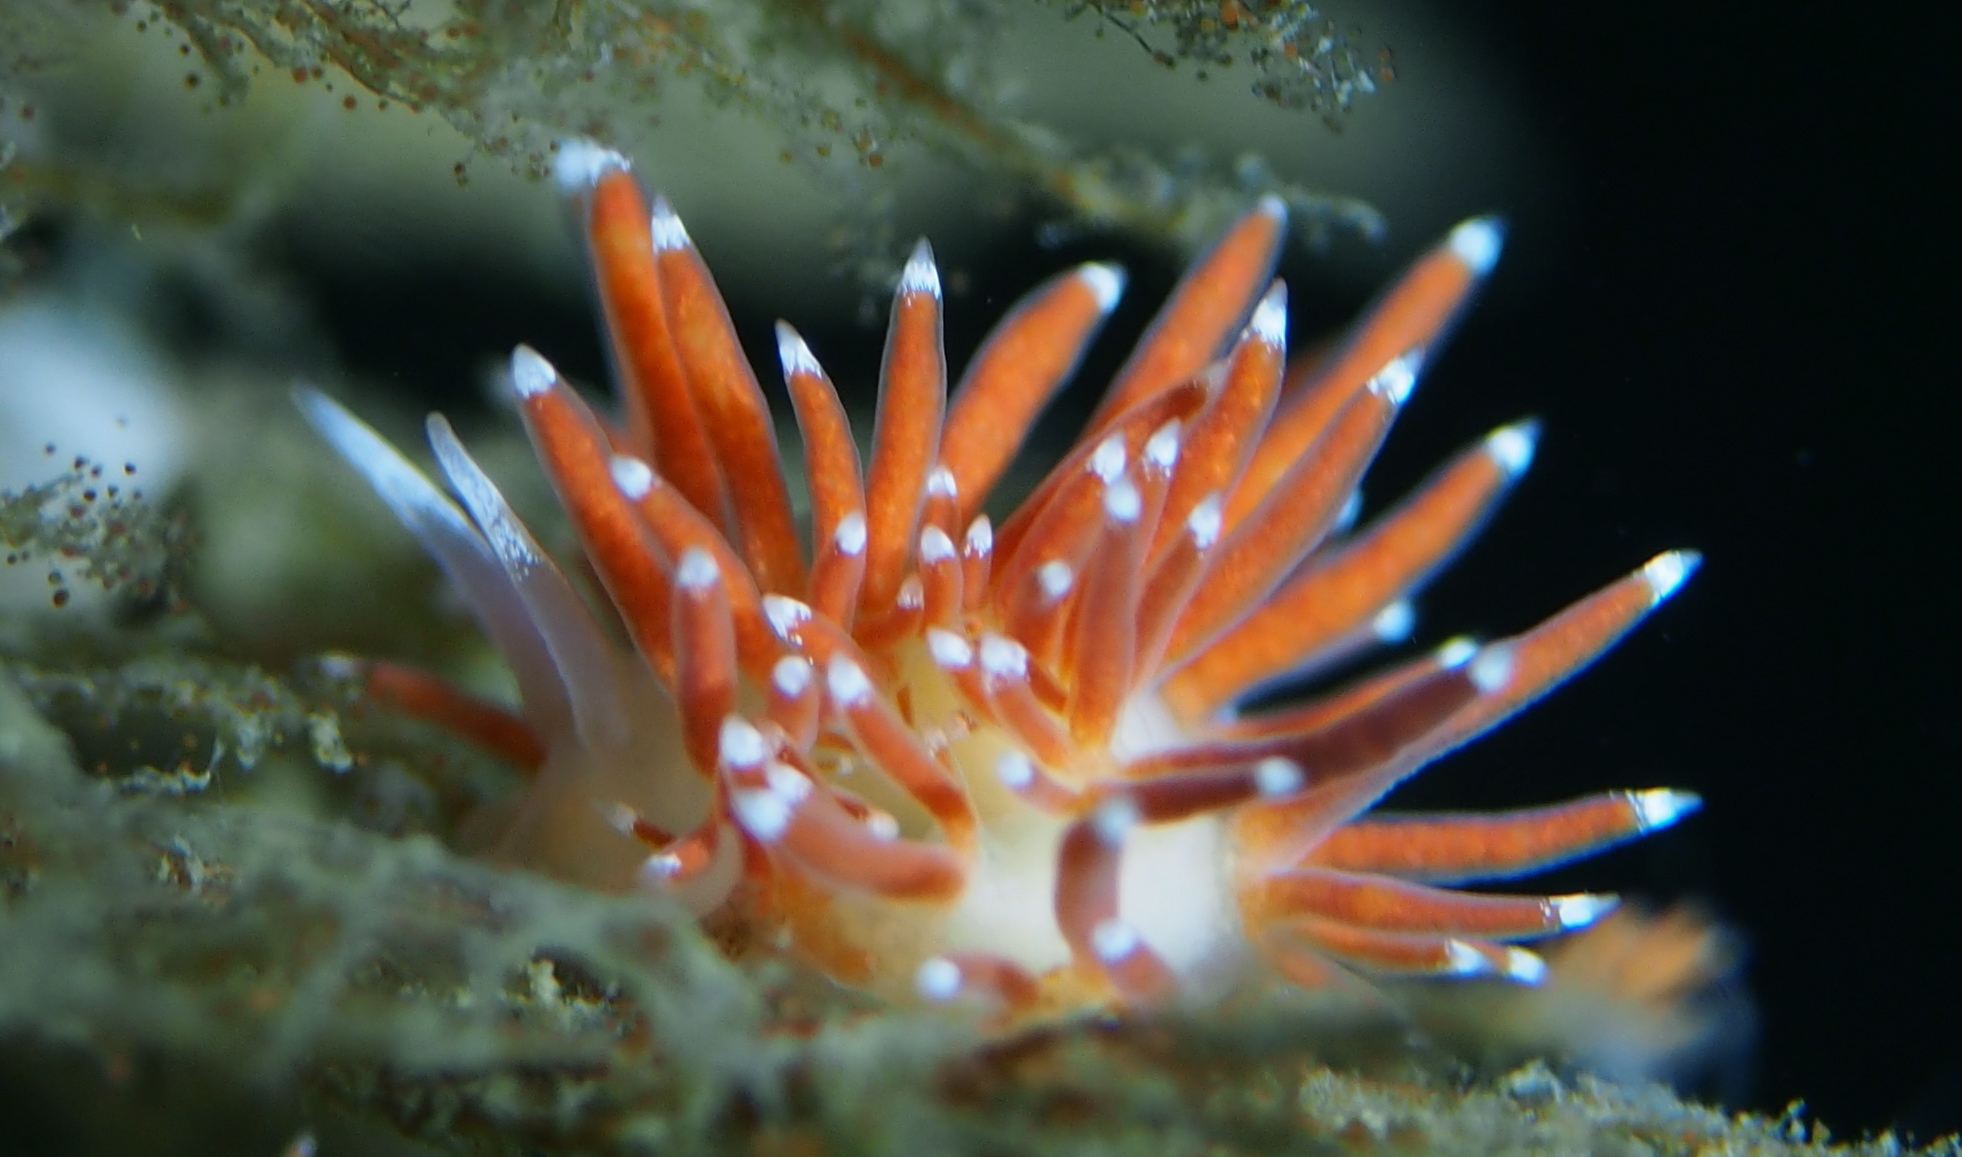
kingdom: Animalia
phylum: Mollusca
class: Gastropoda
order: Nudibranchia
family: Coryphellidae
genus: Coryphella
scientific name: Coryphella gracilis
